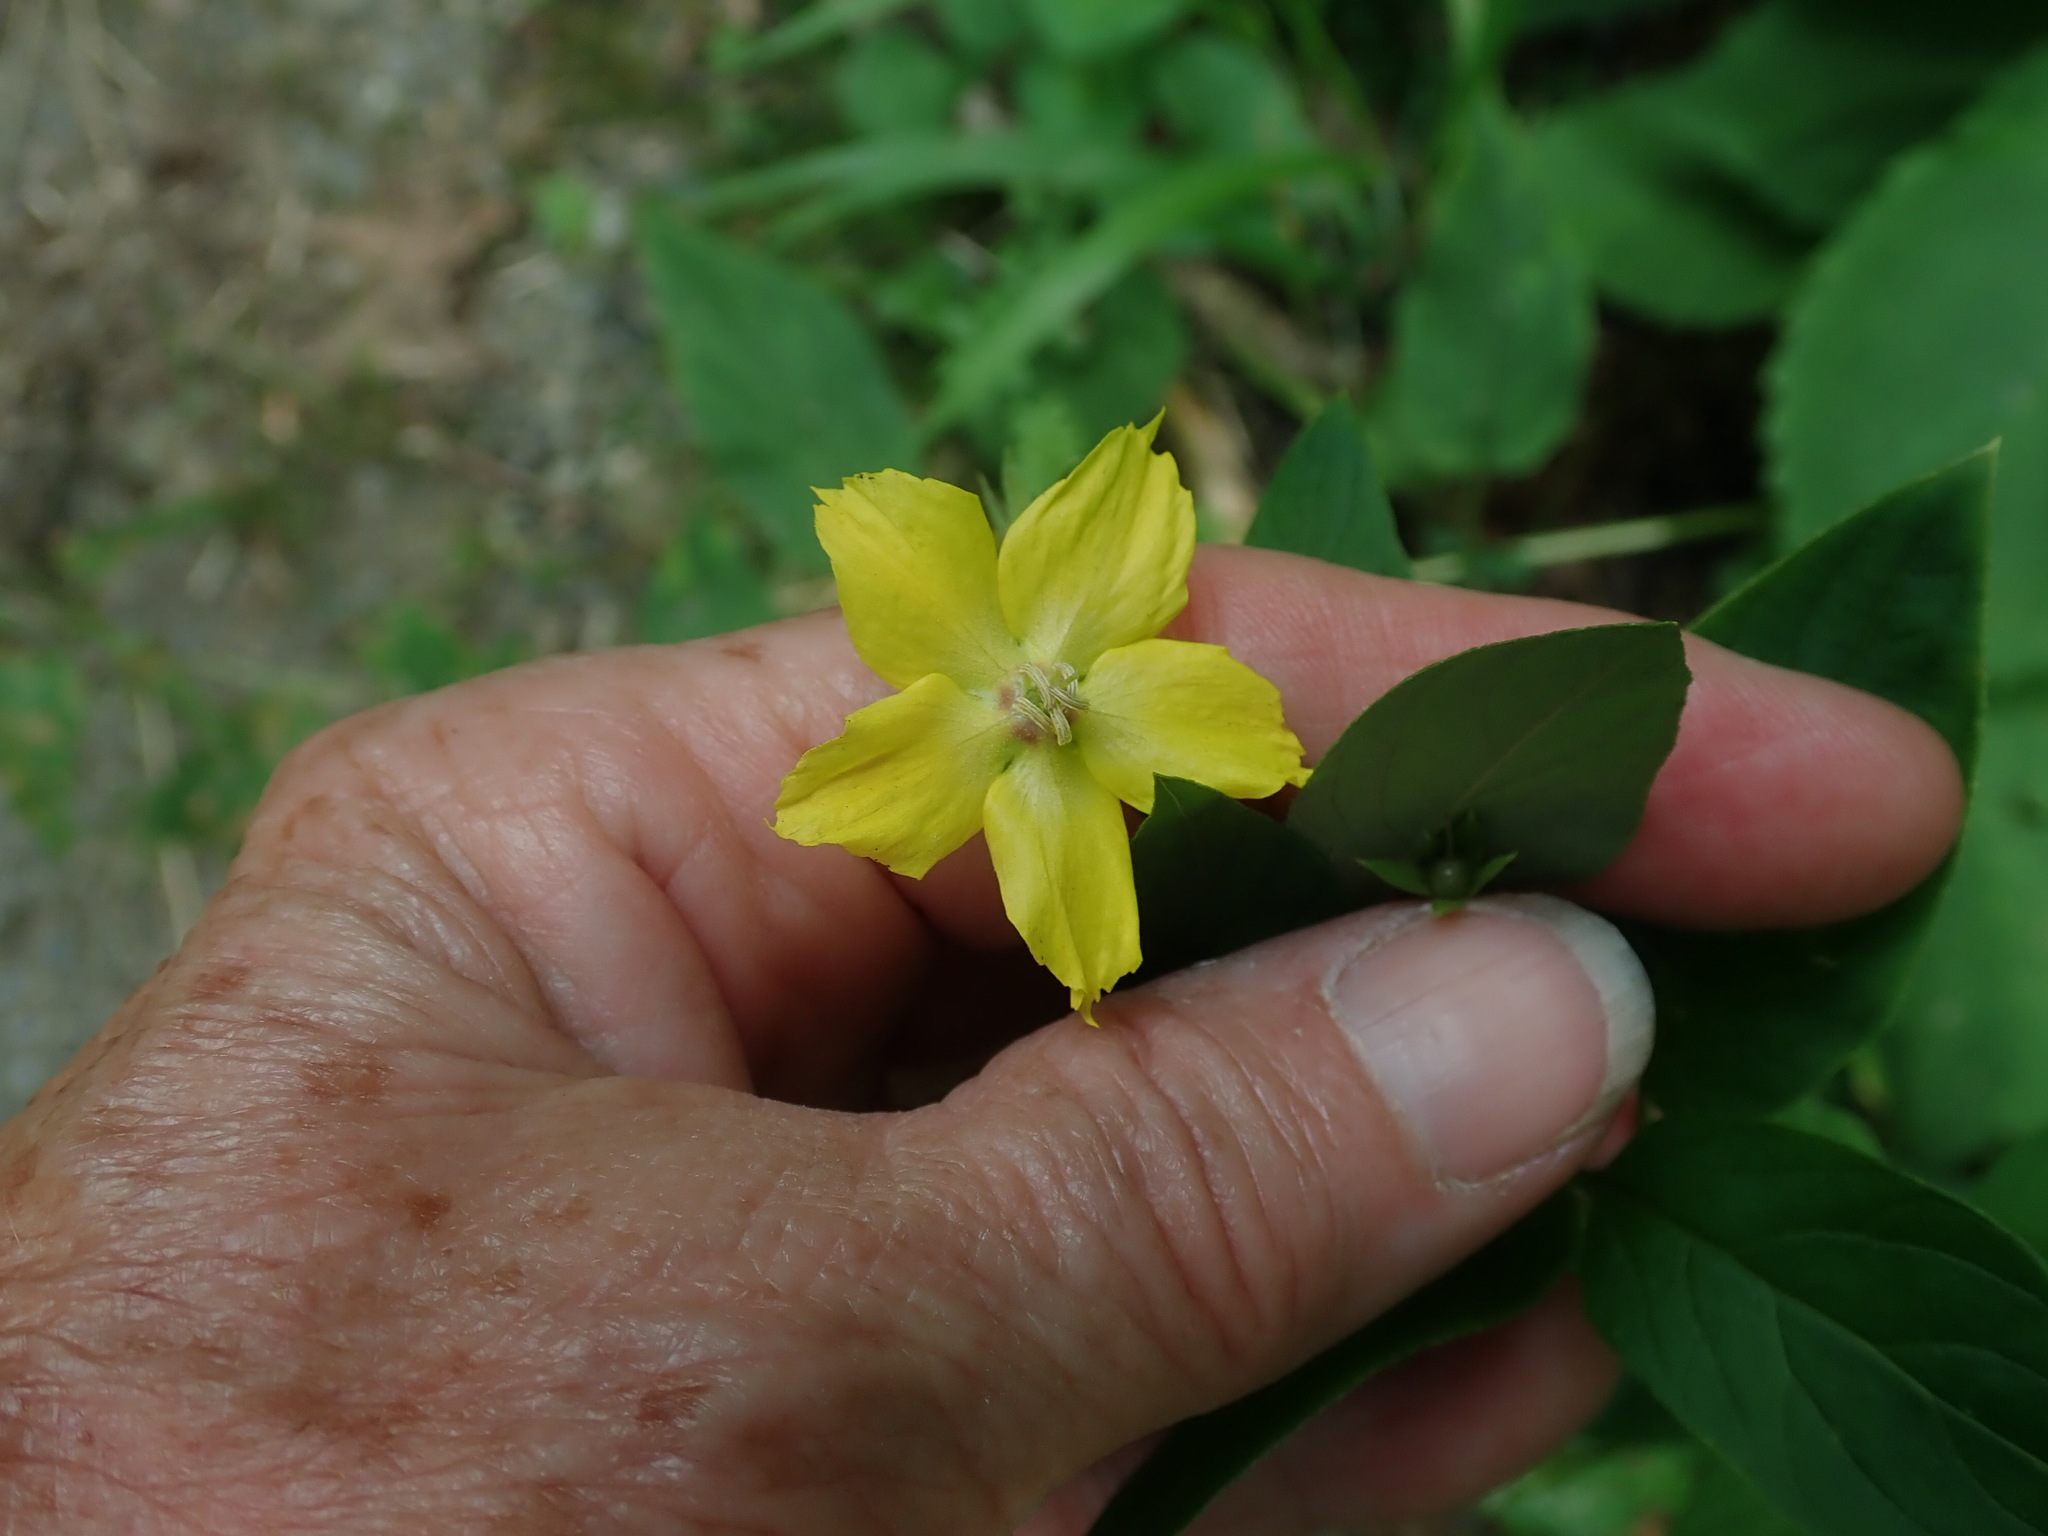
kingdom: Plantae
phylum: Tracheophyta
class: Magnoliopsida
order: Ericales
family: Primulaceae
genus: Lysimachia
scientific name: Lysimachia ciliata
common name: Fringed loosestrife
